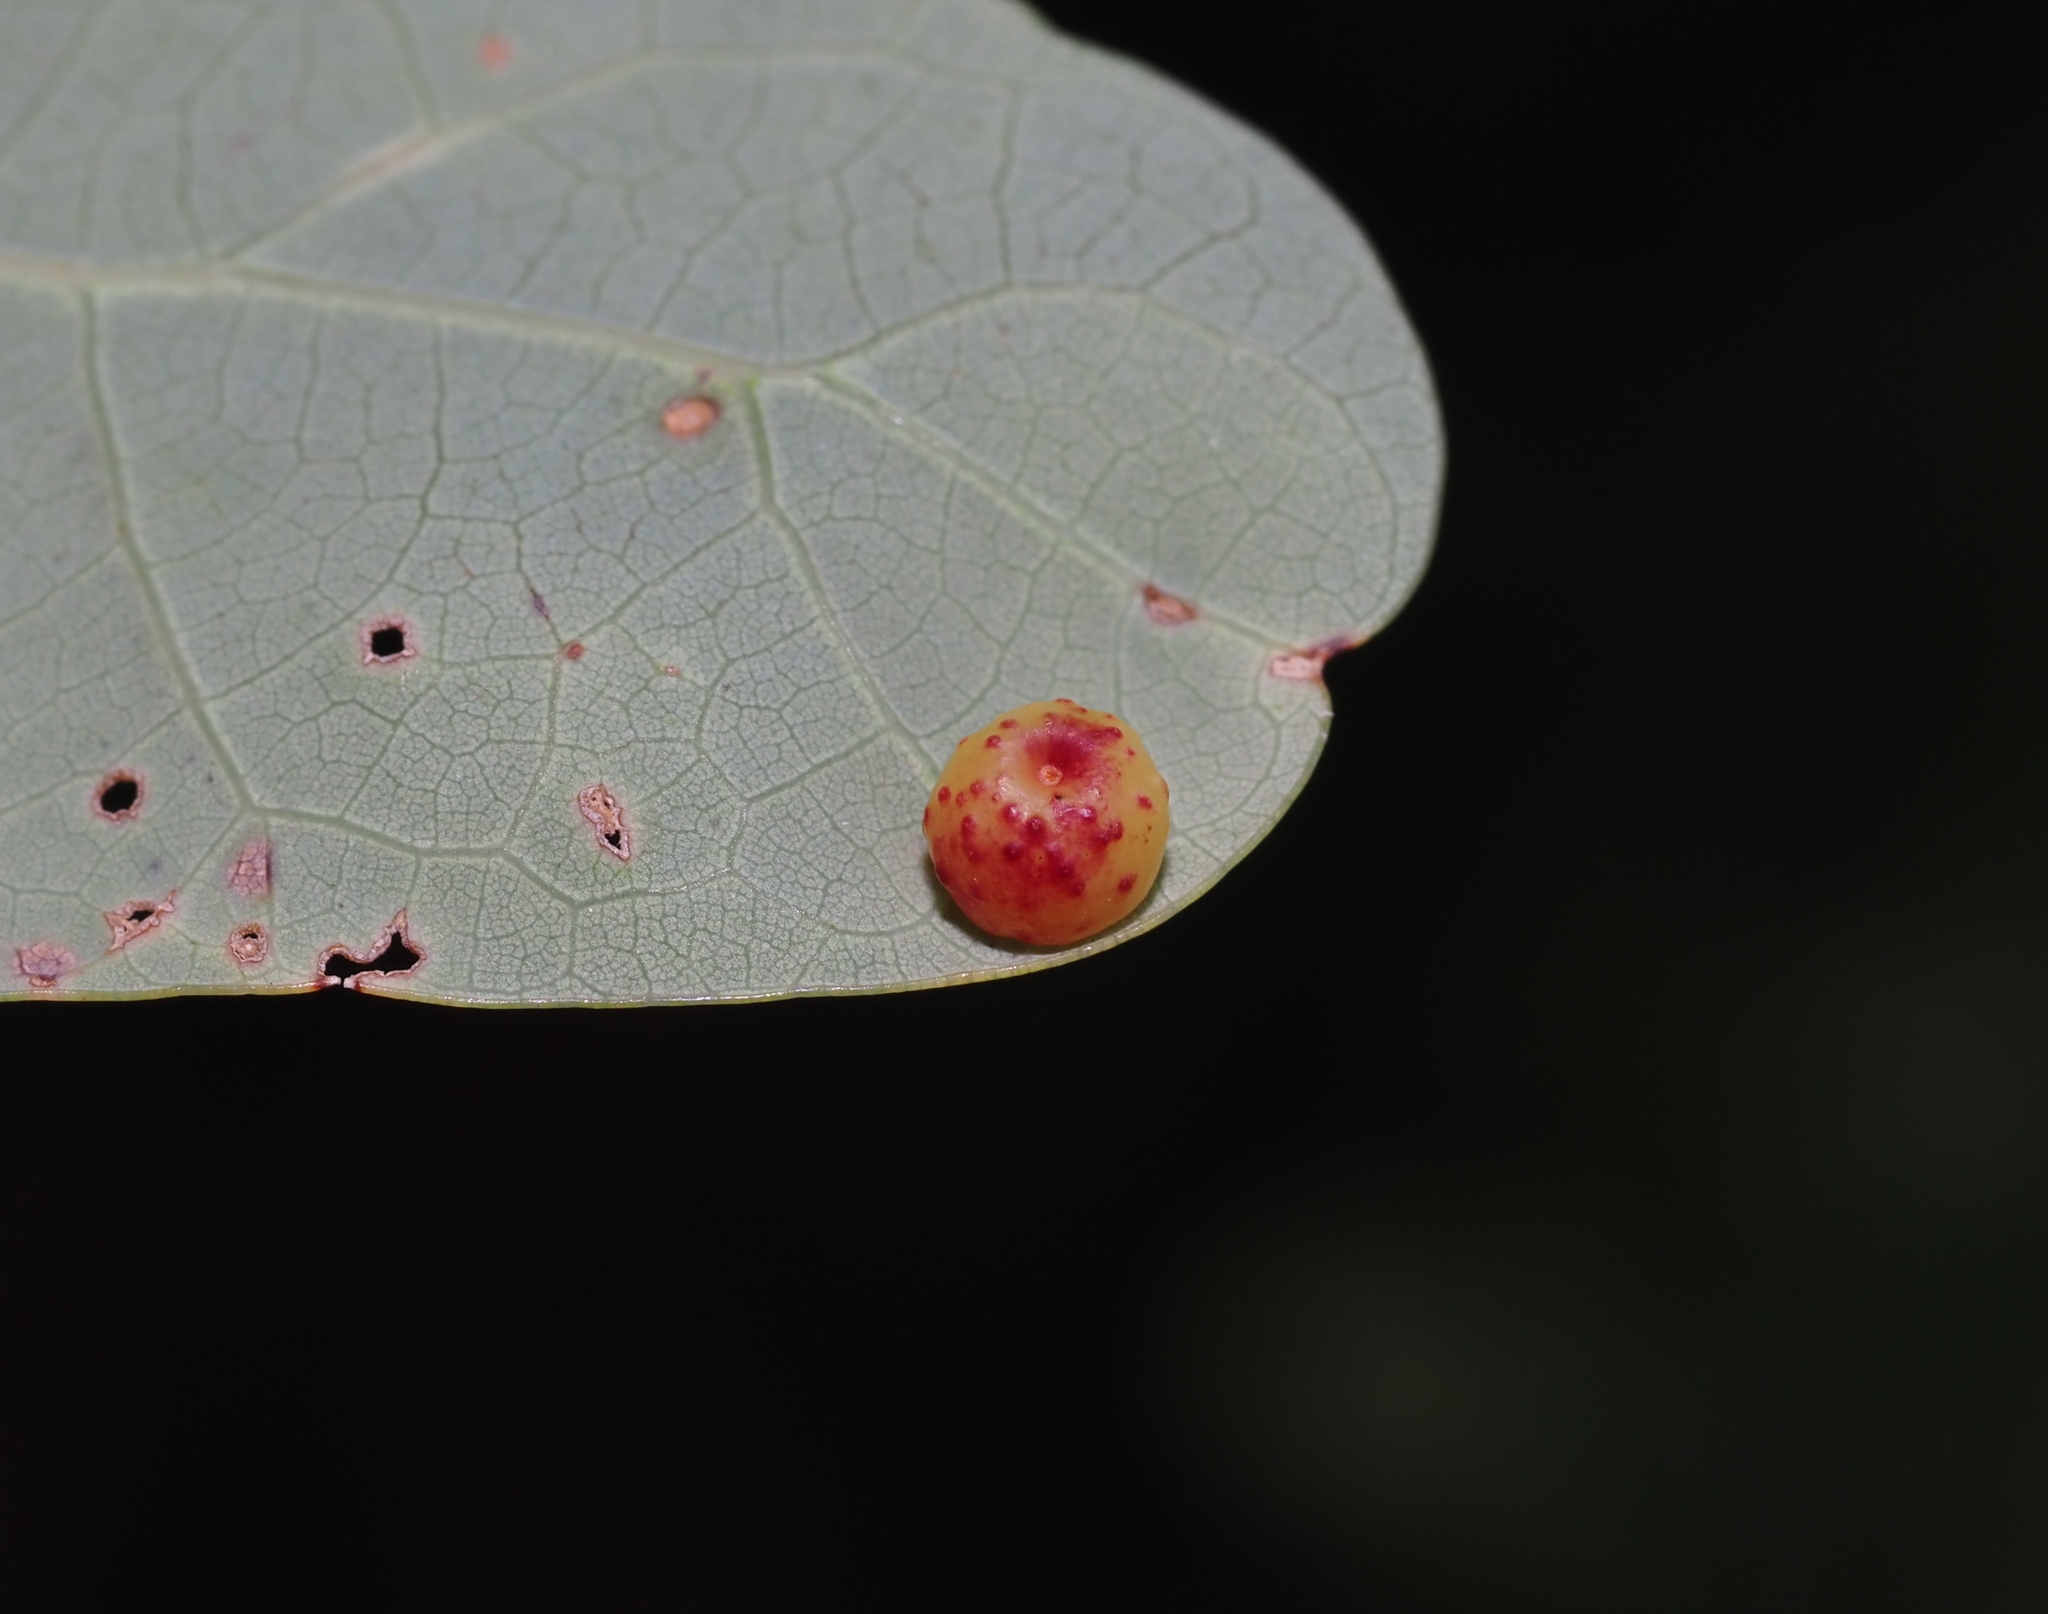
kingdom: Animalia
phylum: Arthropoda
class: Insecta
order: Hymenoptera
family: Cynipidae
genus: Andricus
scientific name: Andricus
